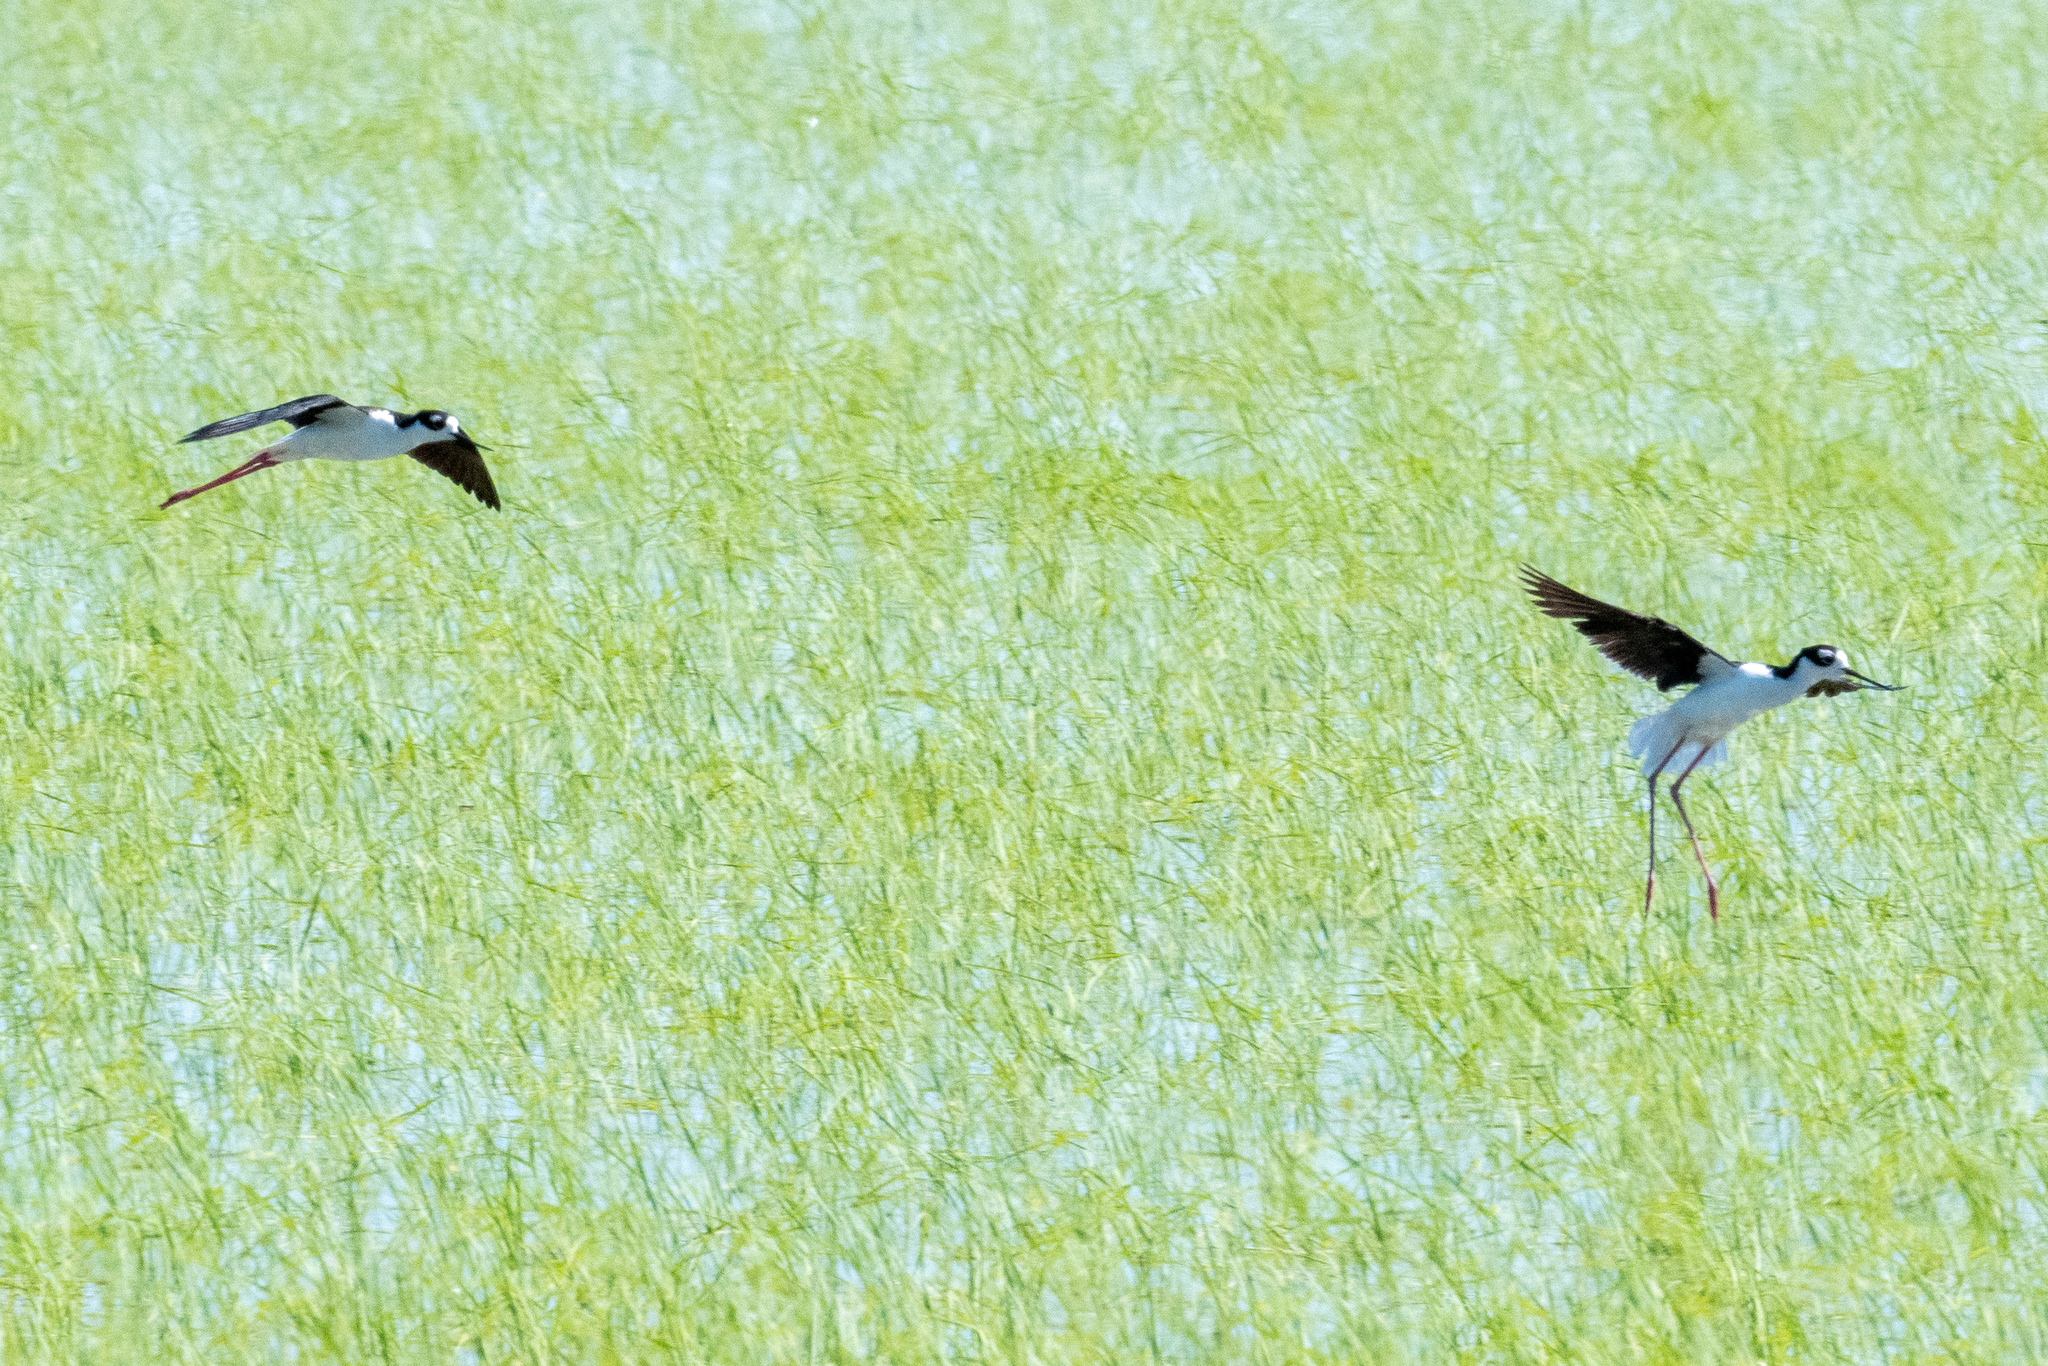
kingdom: Animalia
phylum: Chordata
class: Aves
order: Charadriiformes
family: Recurvirostridae
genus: Himantopus
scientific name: Himantopus mexicanus
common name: Black-necked stilt
